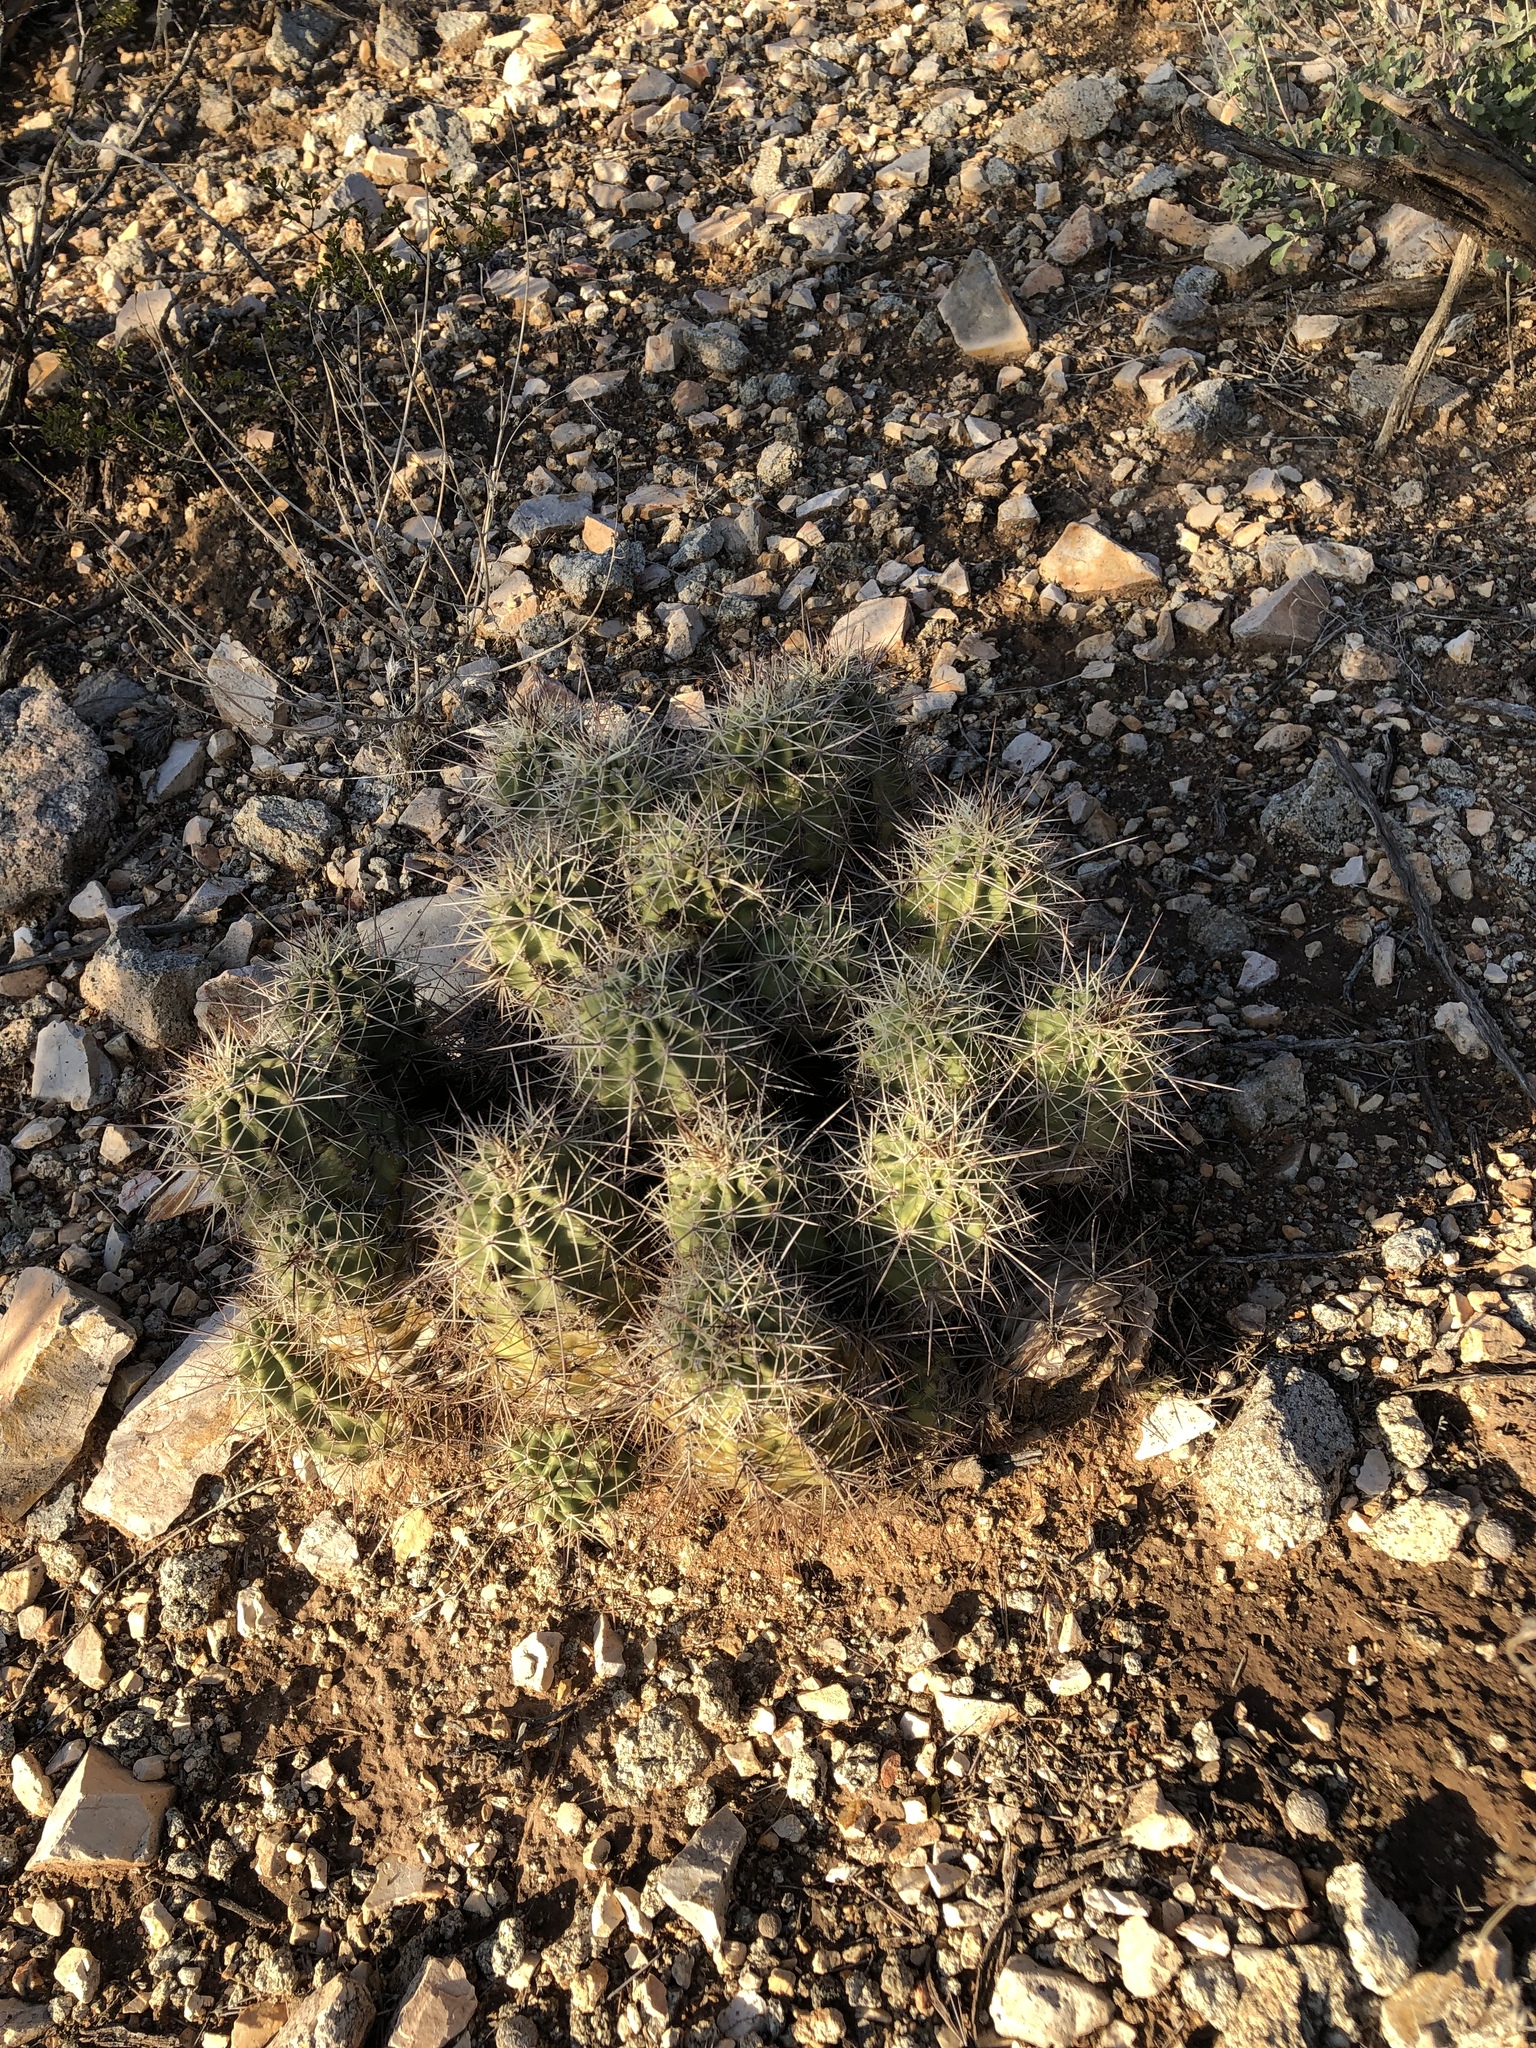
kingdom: Plantae
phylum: Tracheophyta
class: Magnoliopsida
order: Caryophyllales
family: Cactaceae
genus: Echinocereus
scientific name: Echinocereus coccineus
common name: Scarlet hedgehog cactus
